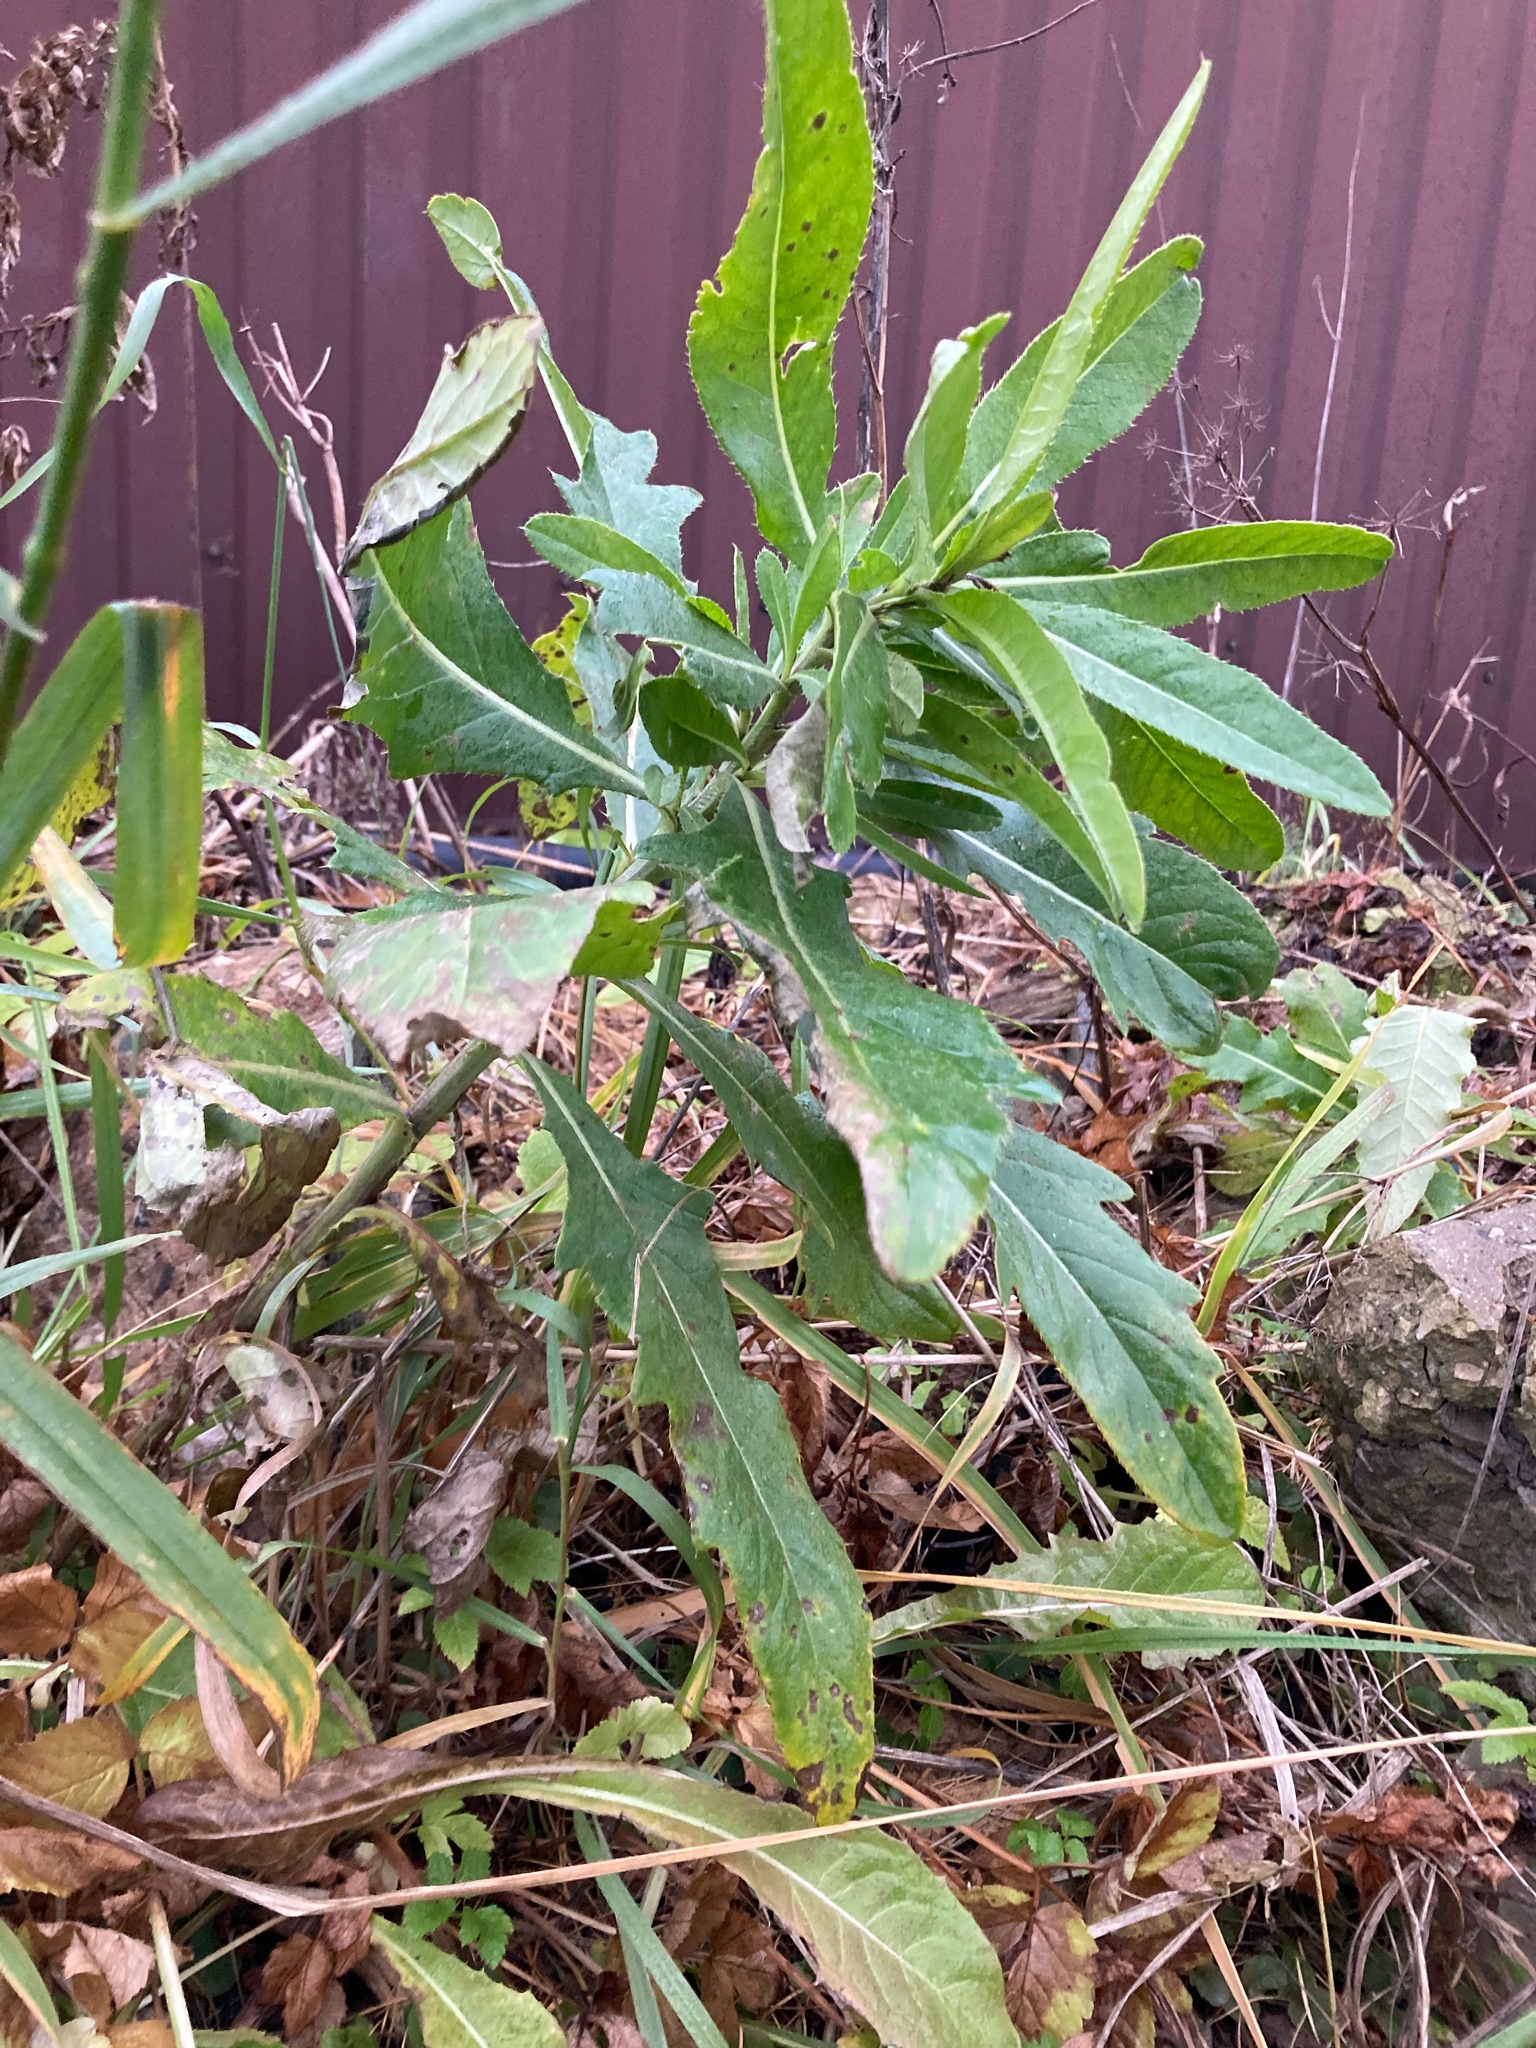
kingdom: Plantae
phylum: Tracheophyta
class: Magnoliopsida
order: Asterales
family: Asteraceae
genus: Cirsium
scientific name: Cirsium arvense
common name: Creeping thistle
